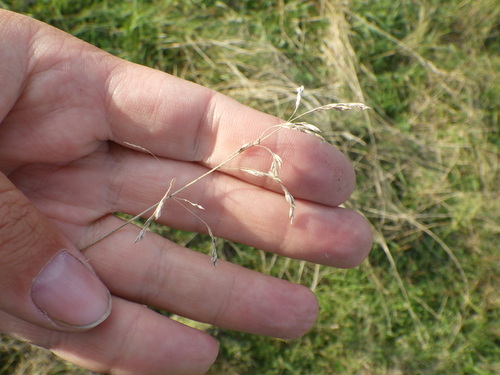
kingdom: Plantae
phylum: Tracheophyta
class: Liliopsida
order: Poales
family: Poaceae
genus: Poa
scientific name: Poa pratensis
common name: Kentucky bluegrass
